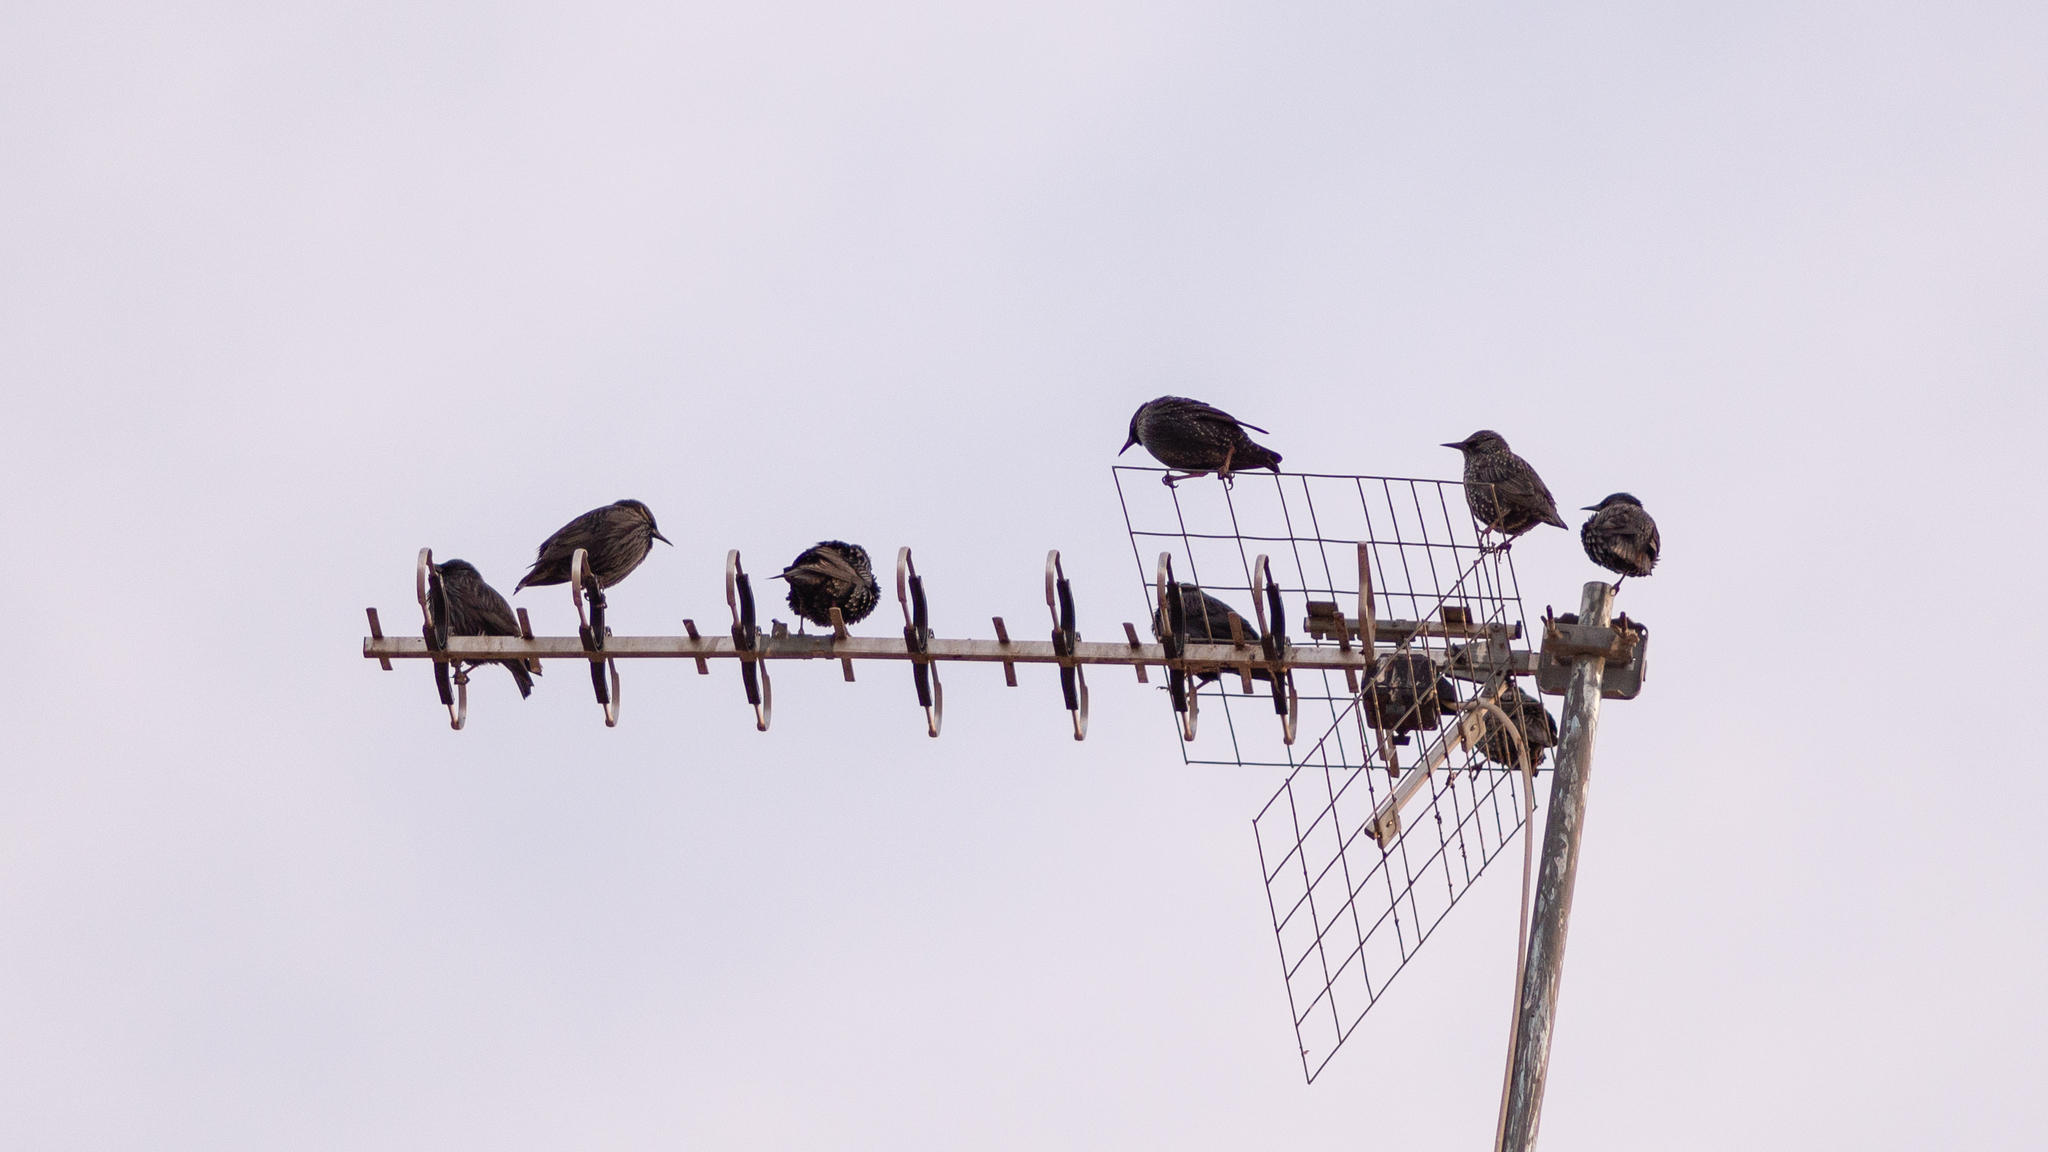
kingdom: Animalia
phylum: Chordata
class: Aves
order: Passeriformes
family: Sturnidae
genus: Sturnus
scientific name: Sturnus unicolor
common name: Spotless starling
